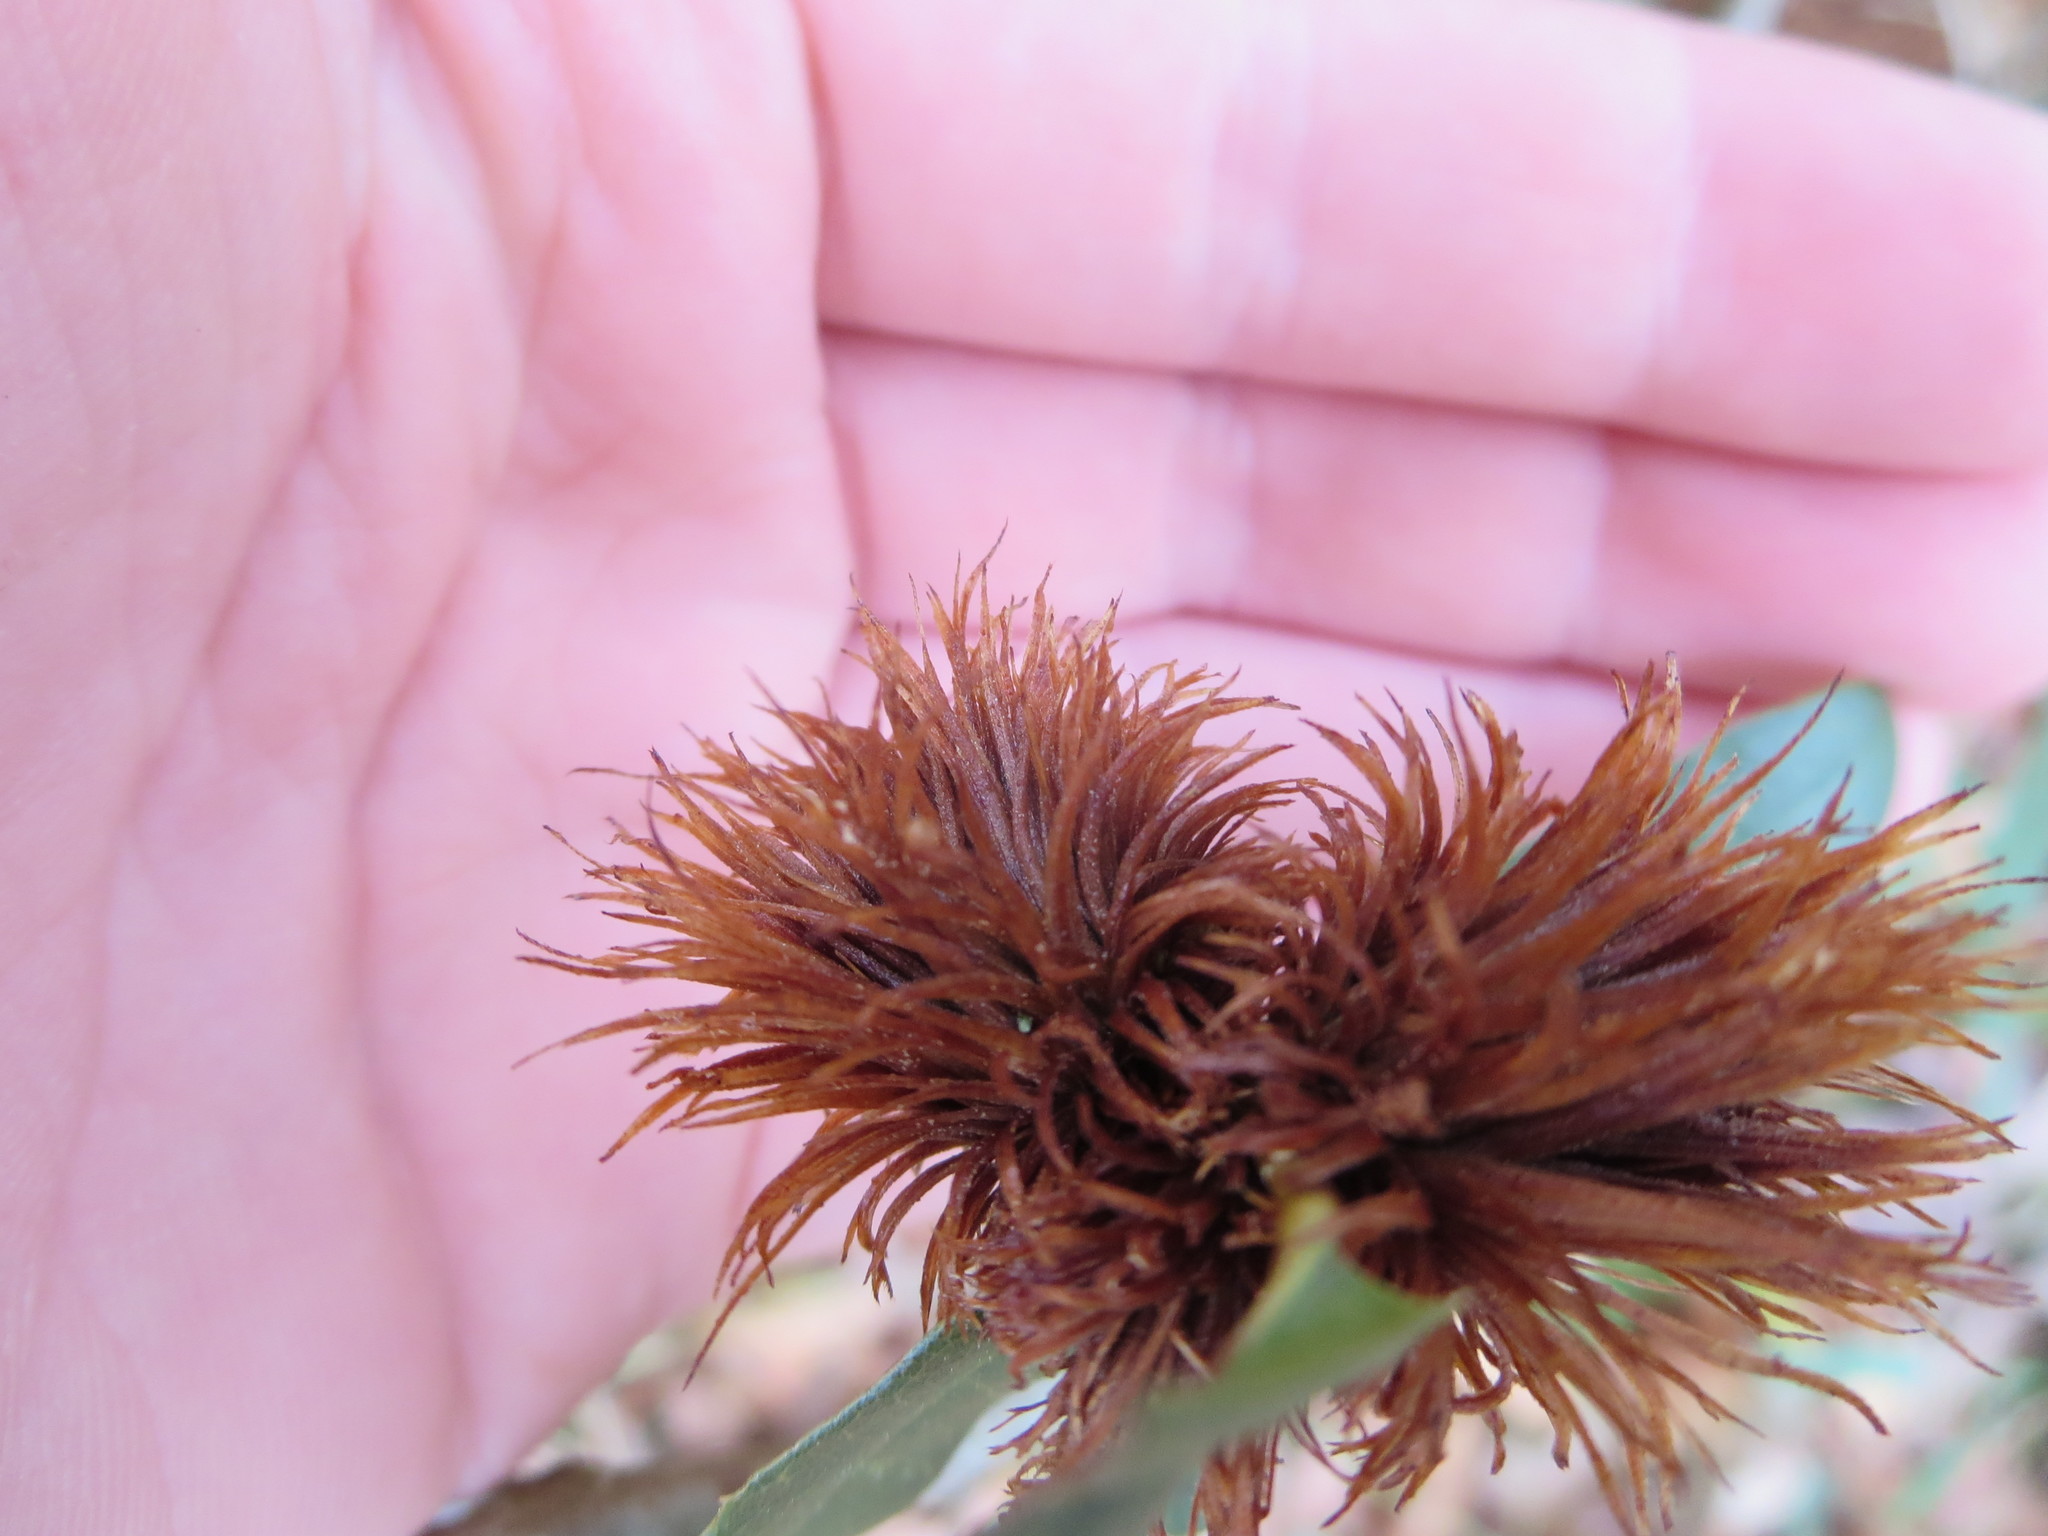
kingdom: Animalia
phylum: Arthropoda
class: Insecta
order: Hymenoptera
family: Cynipidae
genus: Andricus
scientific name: Andricus quercusfoliatus
